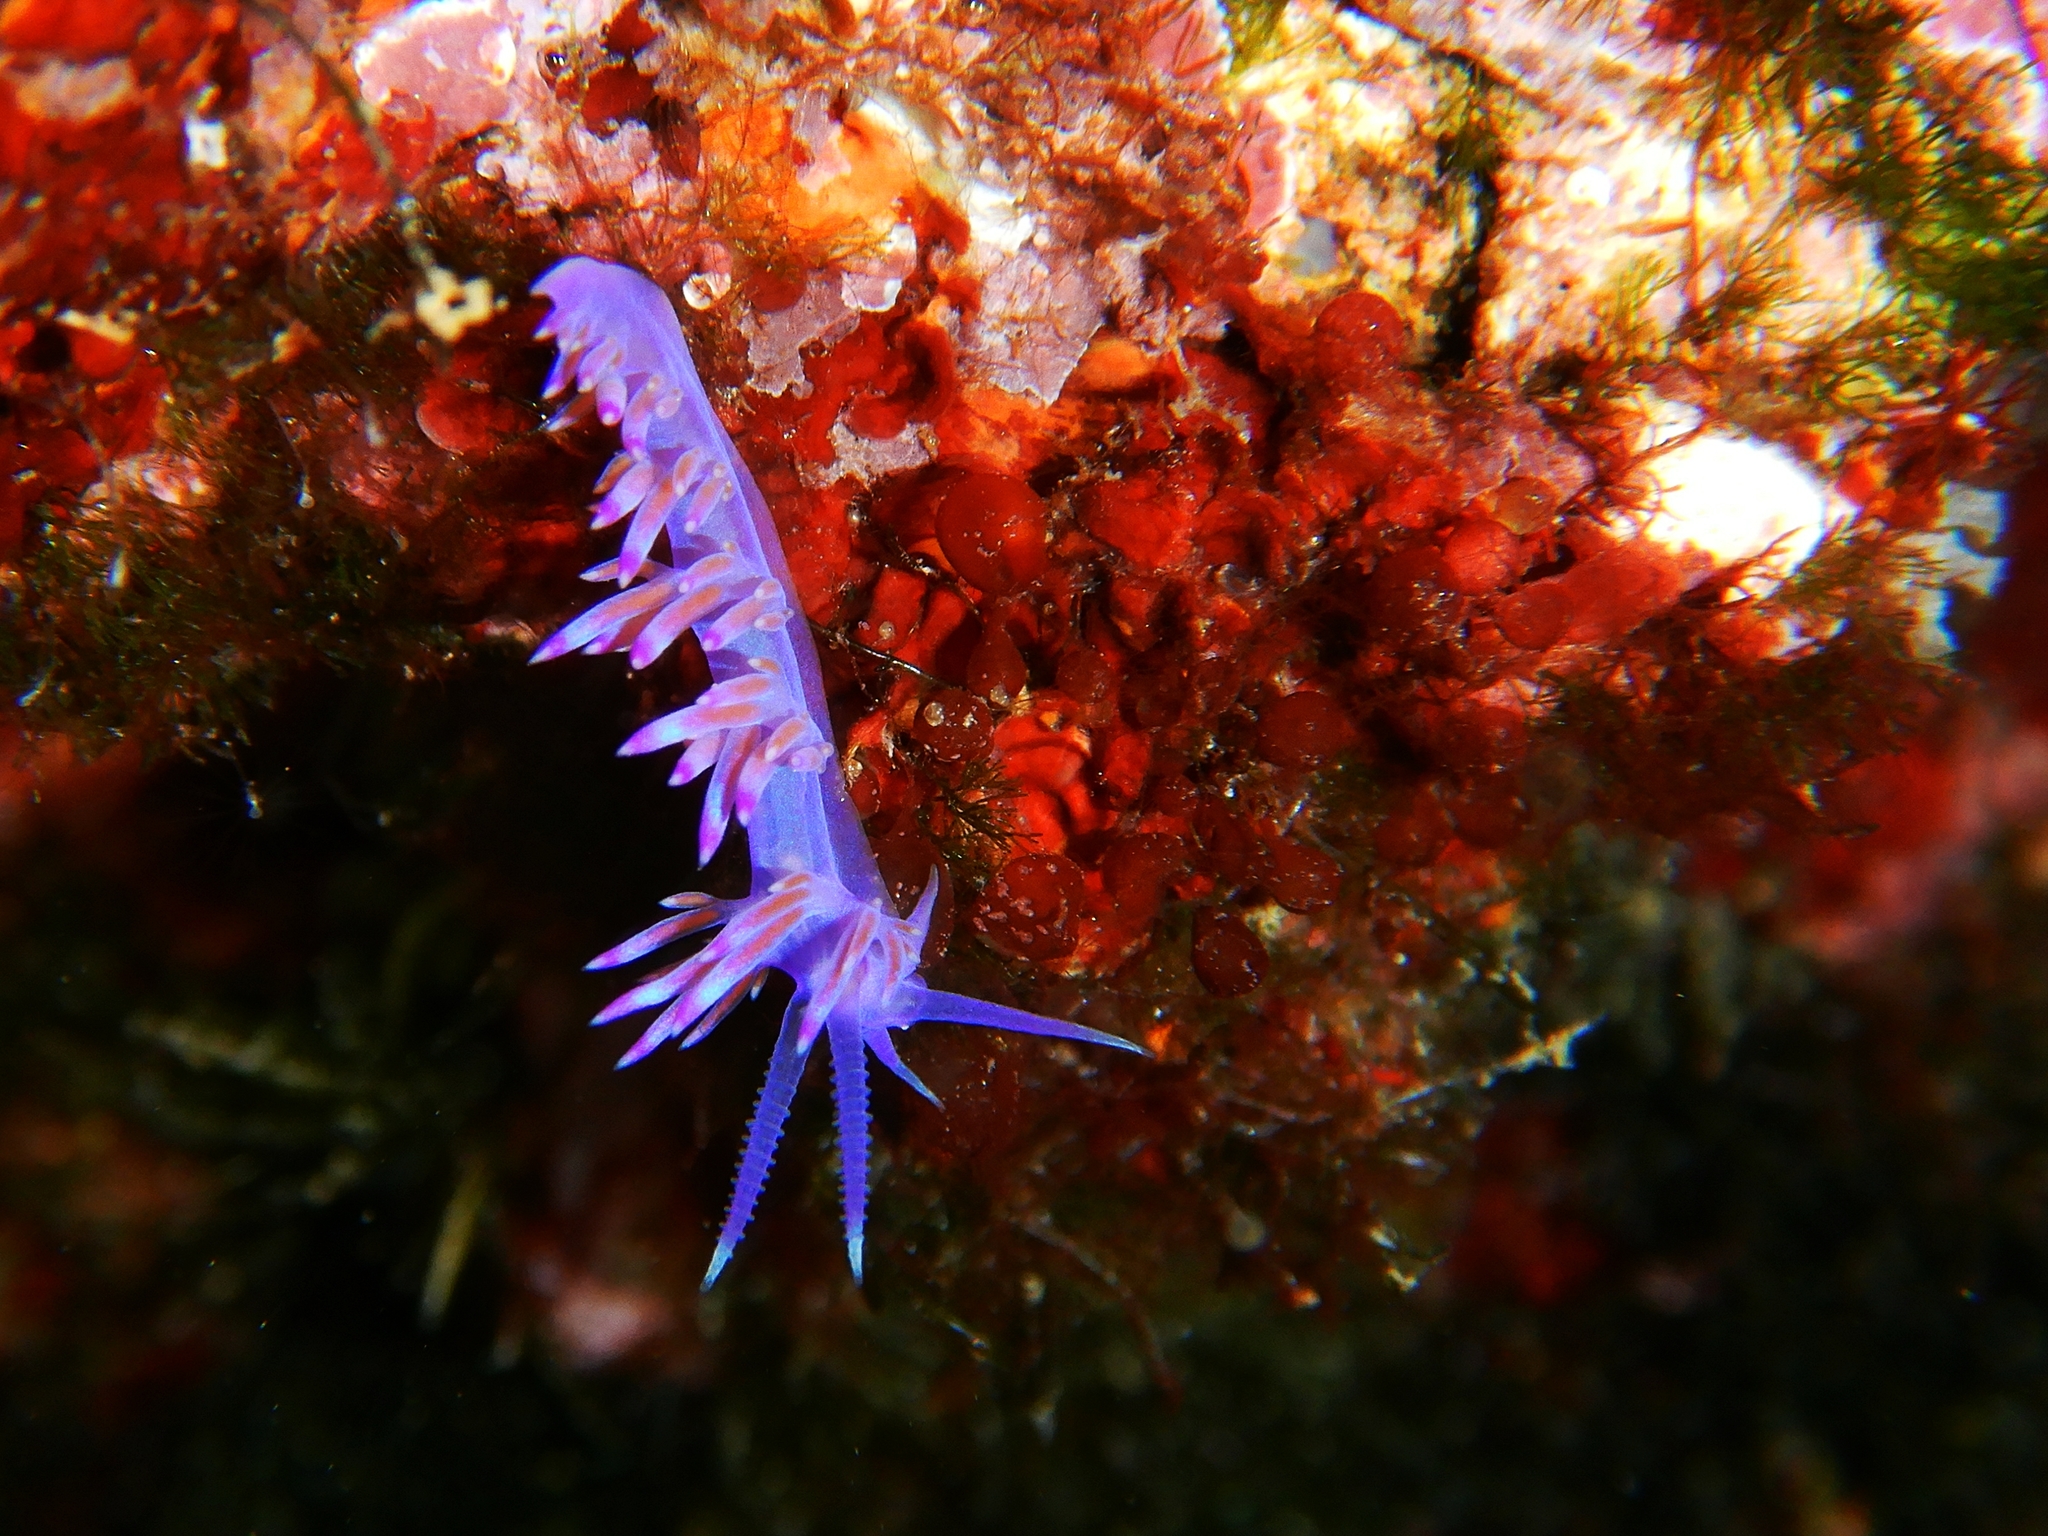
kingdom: Animalia
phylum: Mollusca
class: Gastropoda
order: Nudibranchia
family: Flabellinidae
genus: Flabellina
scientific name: Flabellina affinis
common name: Mediterranean violet aeolid
